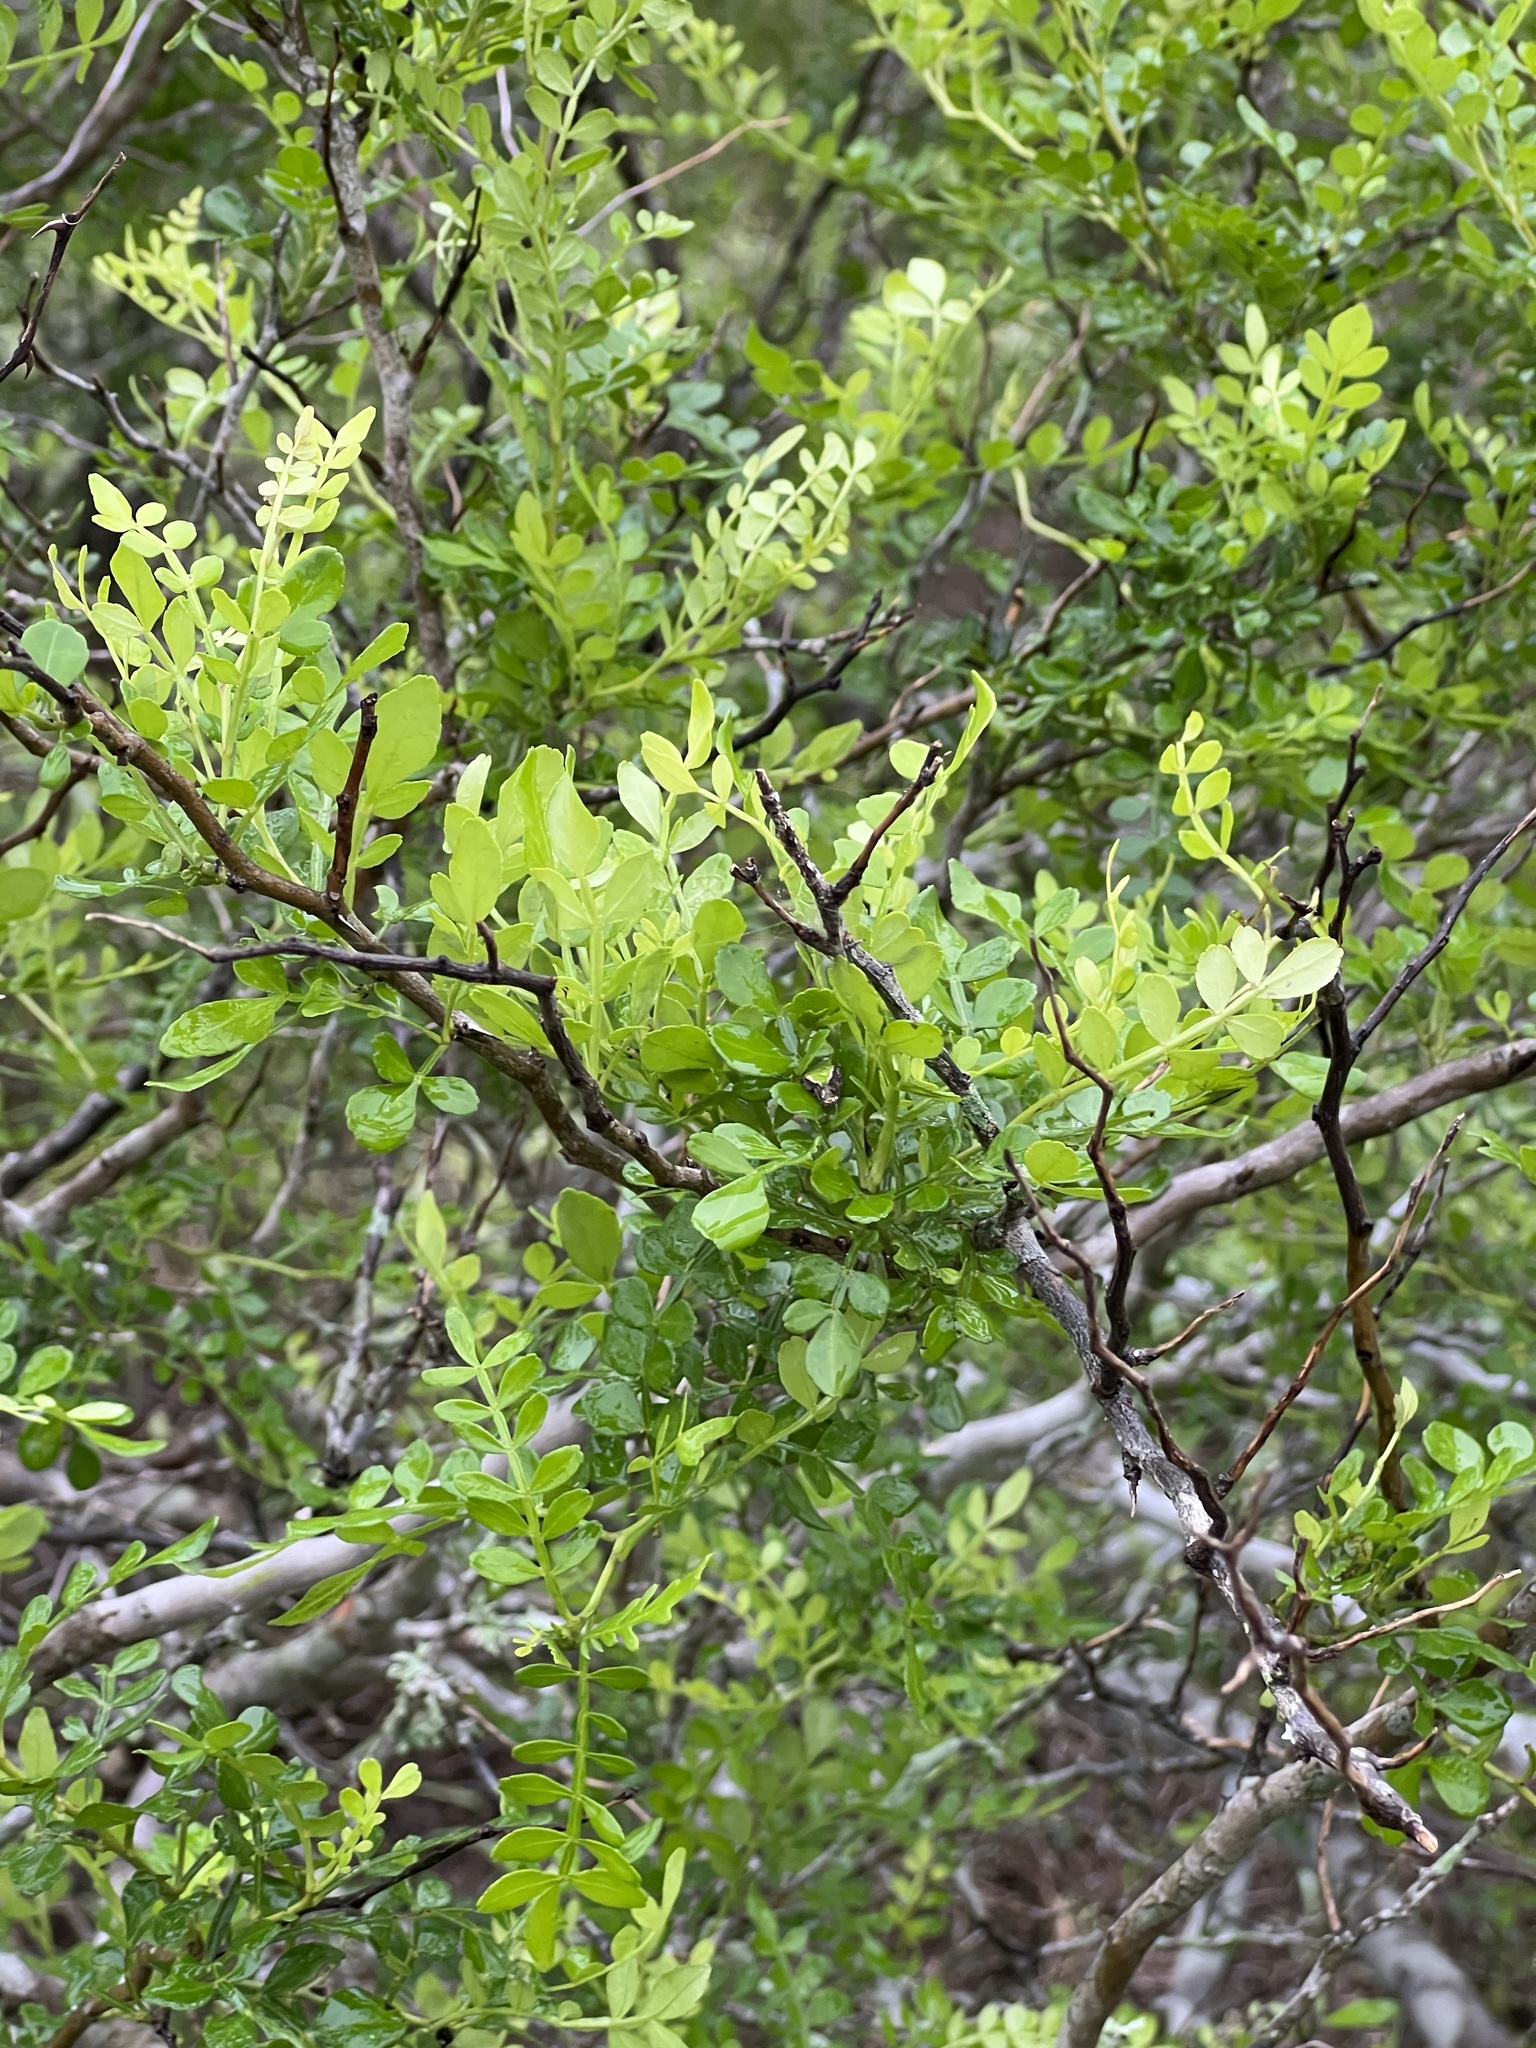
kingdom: Plantae
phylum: Tracheophyta
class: Magnoliopsida
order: Sapindales
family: Rutaceae
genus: Zanthoxylum
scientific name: Zanthoxylum fagara
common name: Lime prickly-ash
